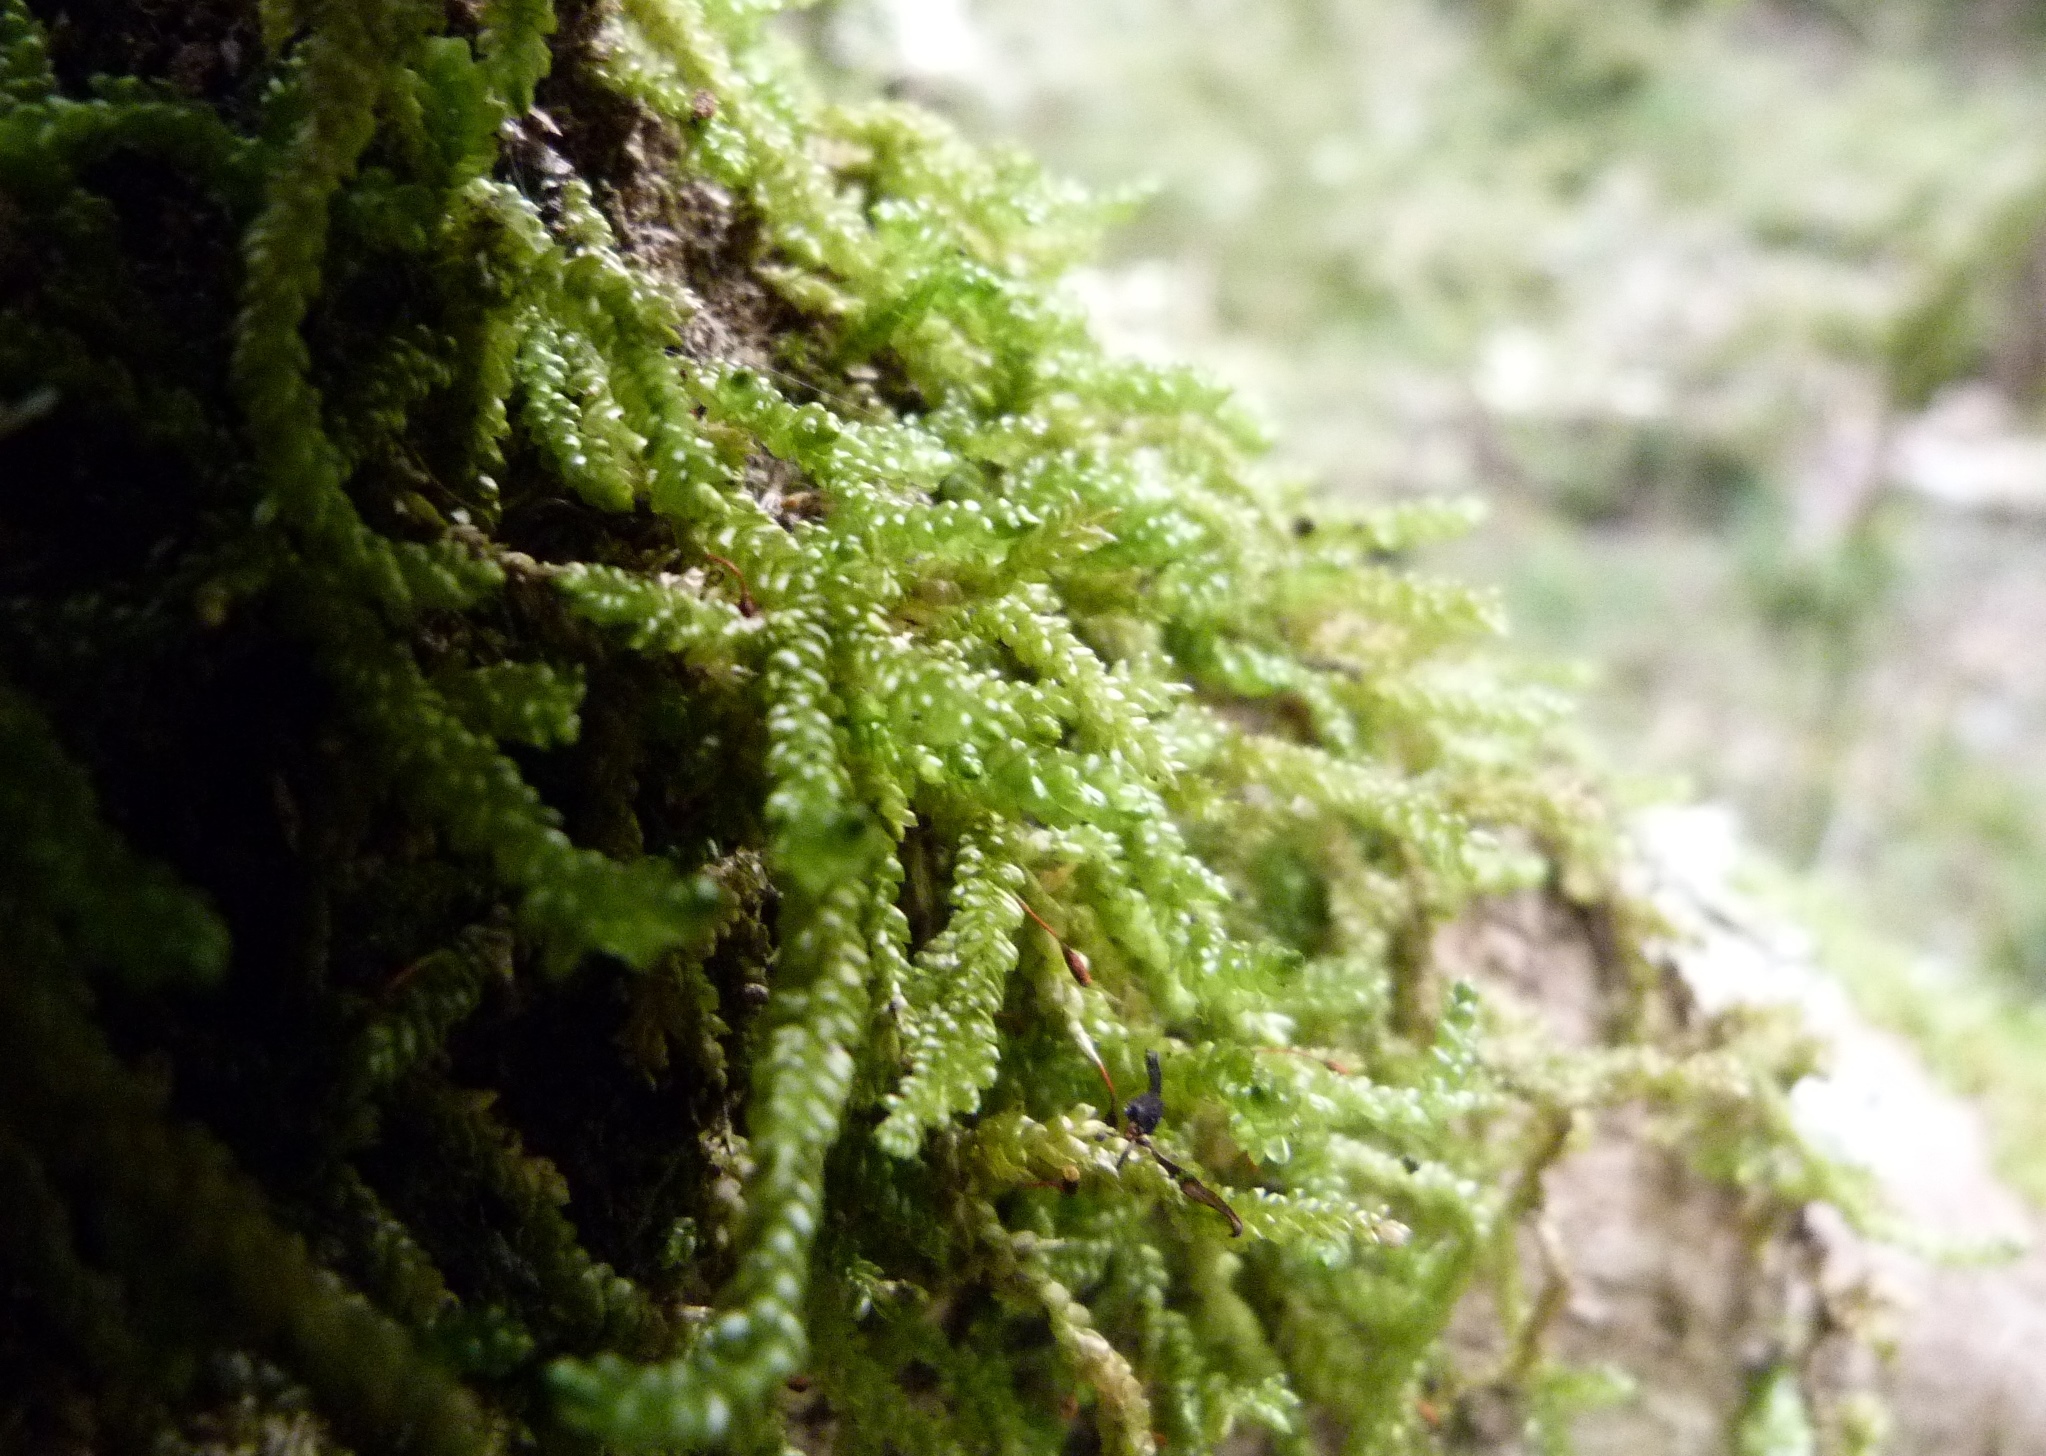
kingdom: Plantae
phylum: Bryophyta
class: Bryopsida
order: Hypnales
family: Lembophyllaceae
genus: Weymouthia
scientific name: Weymouthia cochlearifolia
